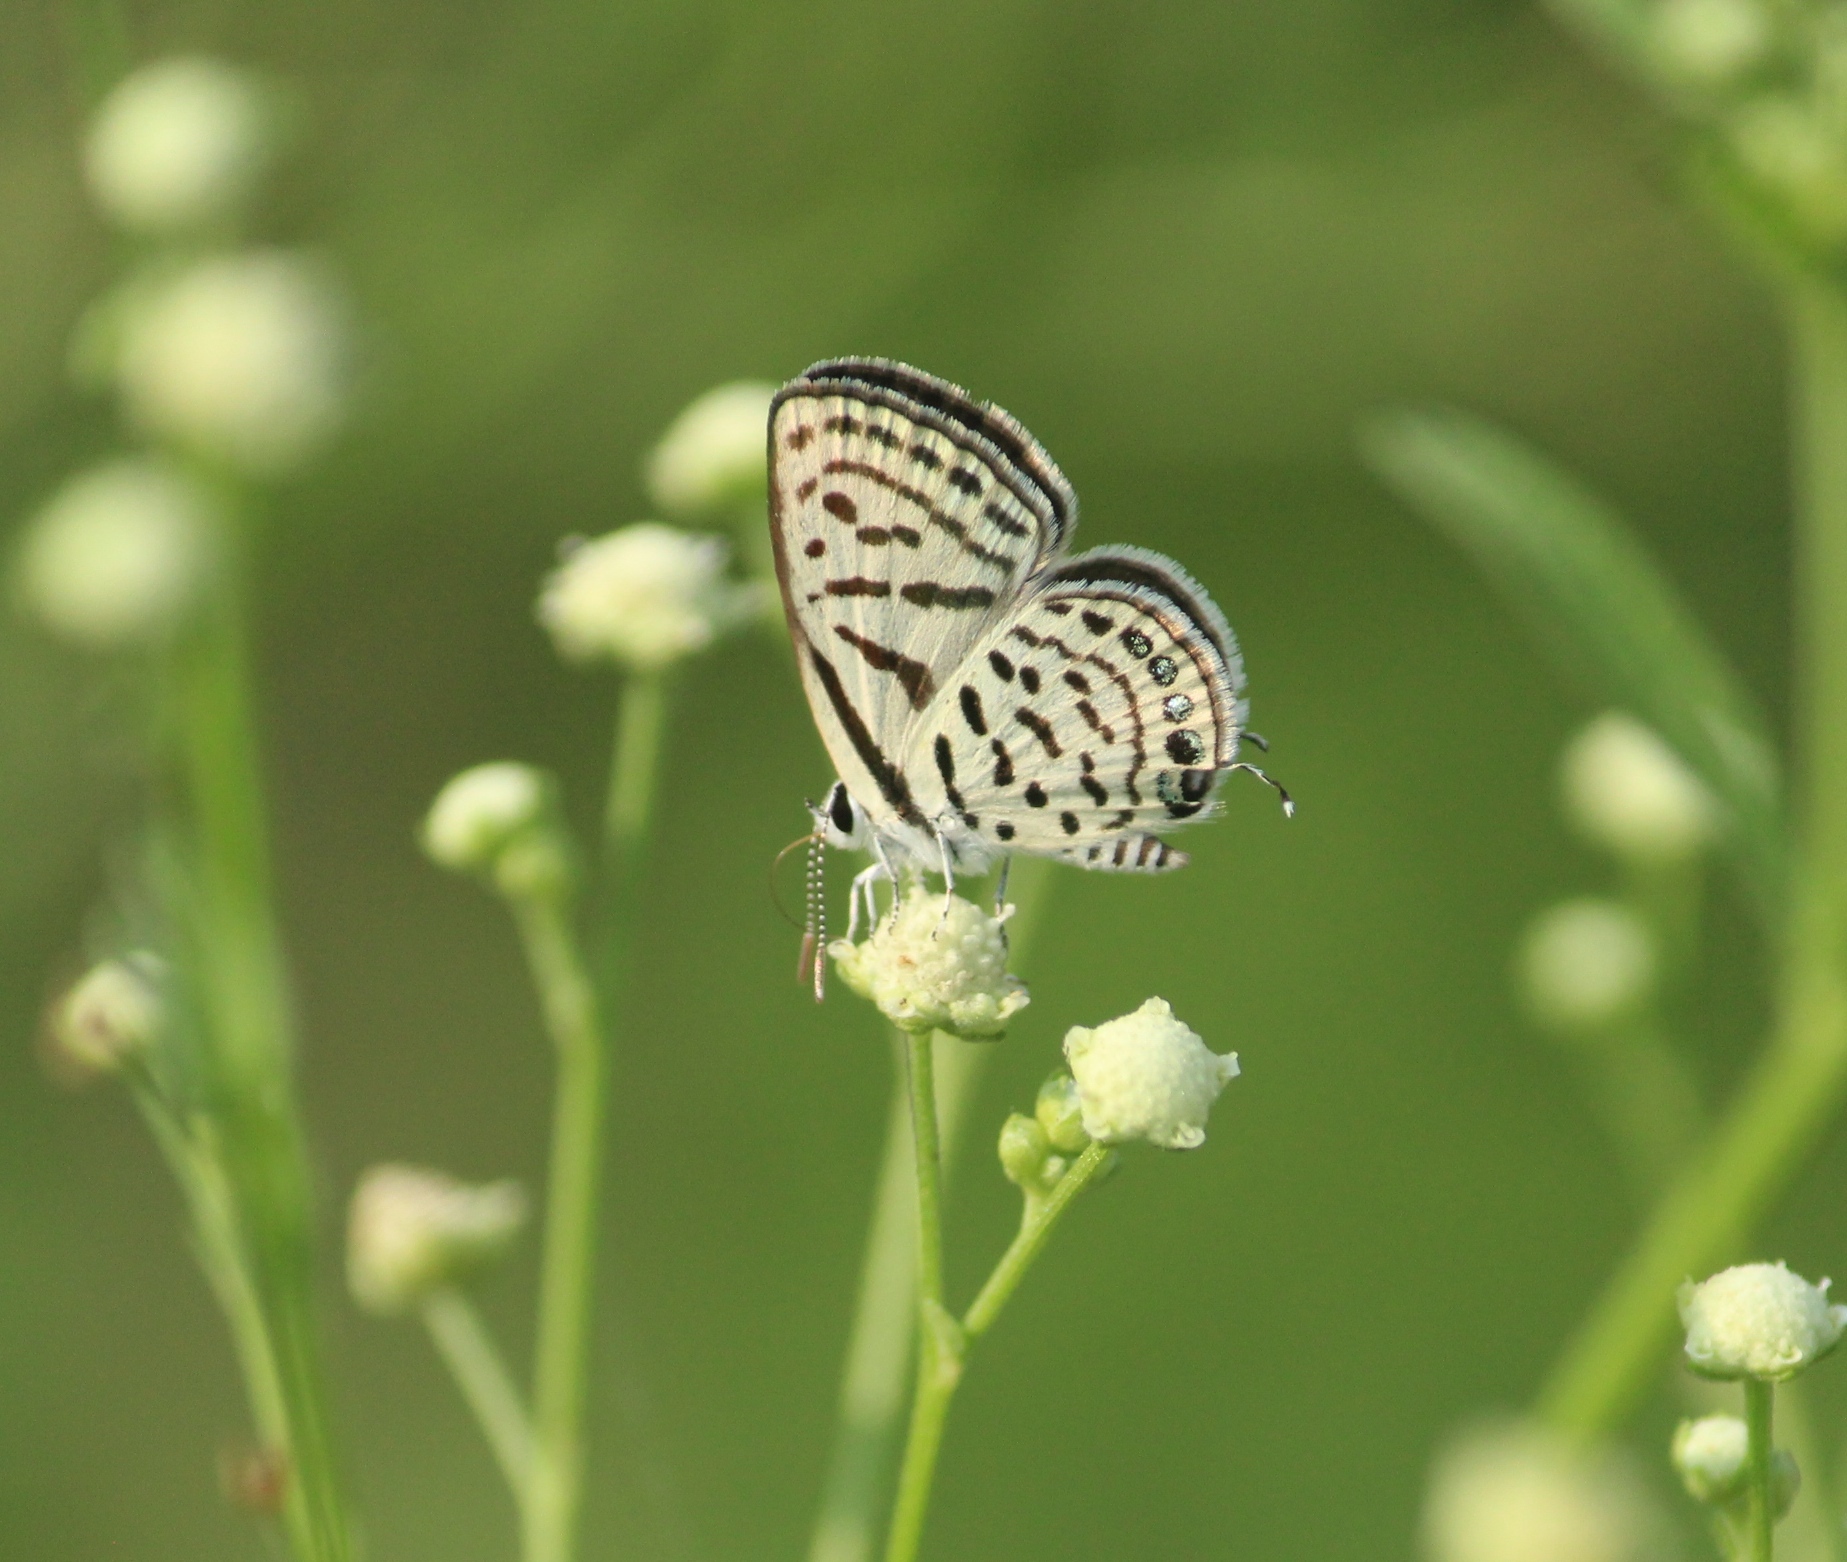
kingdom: Animalia
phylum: Arthropoda
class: Insecta
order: Lepidoptera
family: Lycaenidae
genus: Tarucus
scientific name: Tarucus balkanica
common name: Little tiger blue
